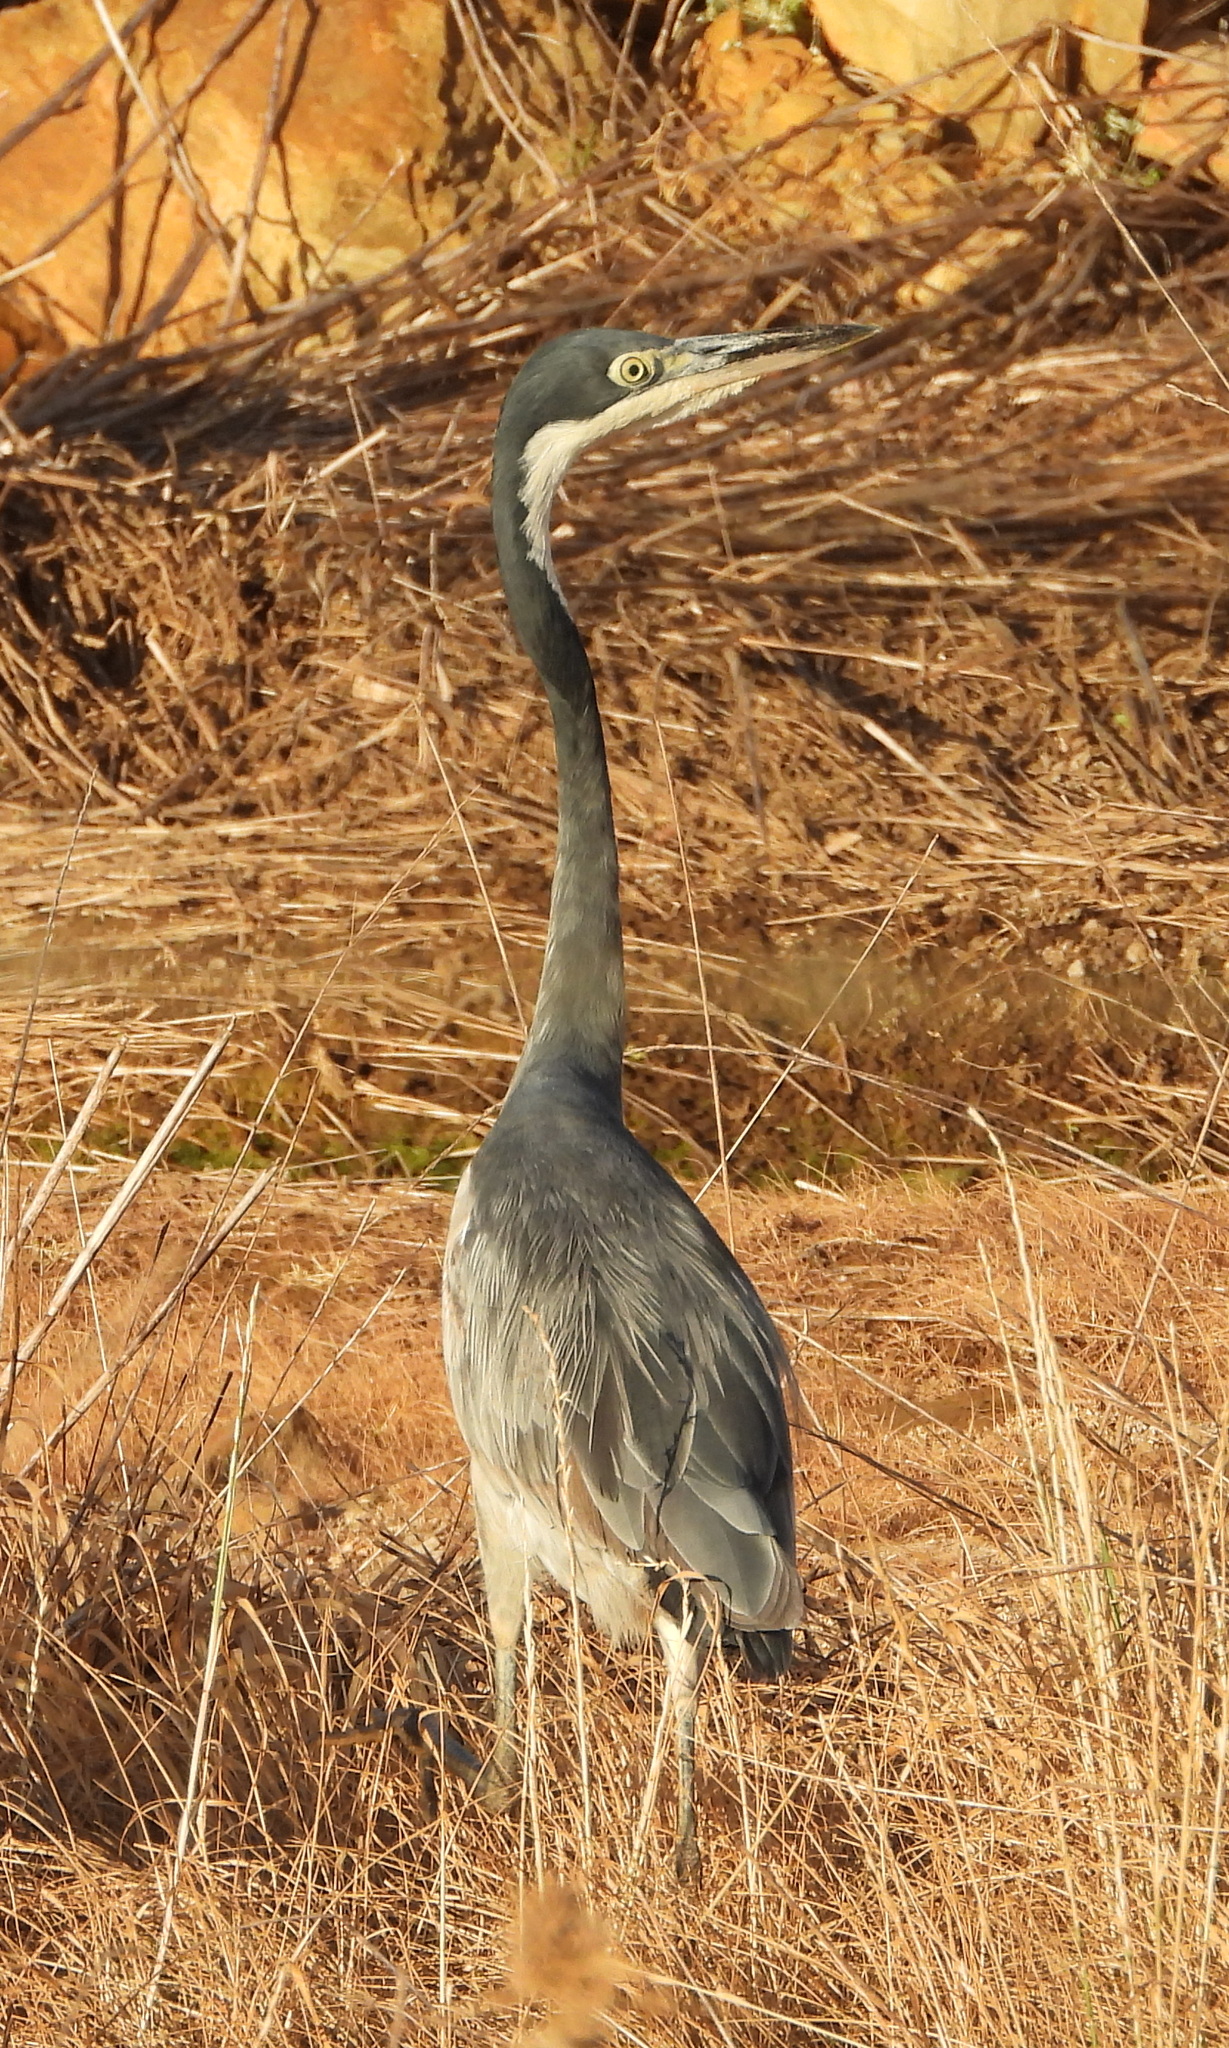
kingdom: Animalia
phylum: Chordata
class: Aves
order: Pelecaniformes
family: Ardeidae
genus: Ardea
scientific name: Ardea melanocephala
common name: Black-headed heron
